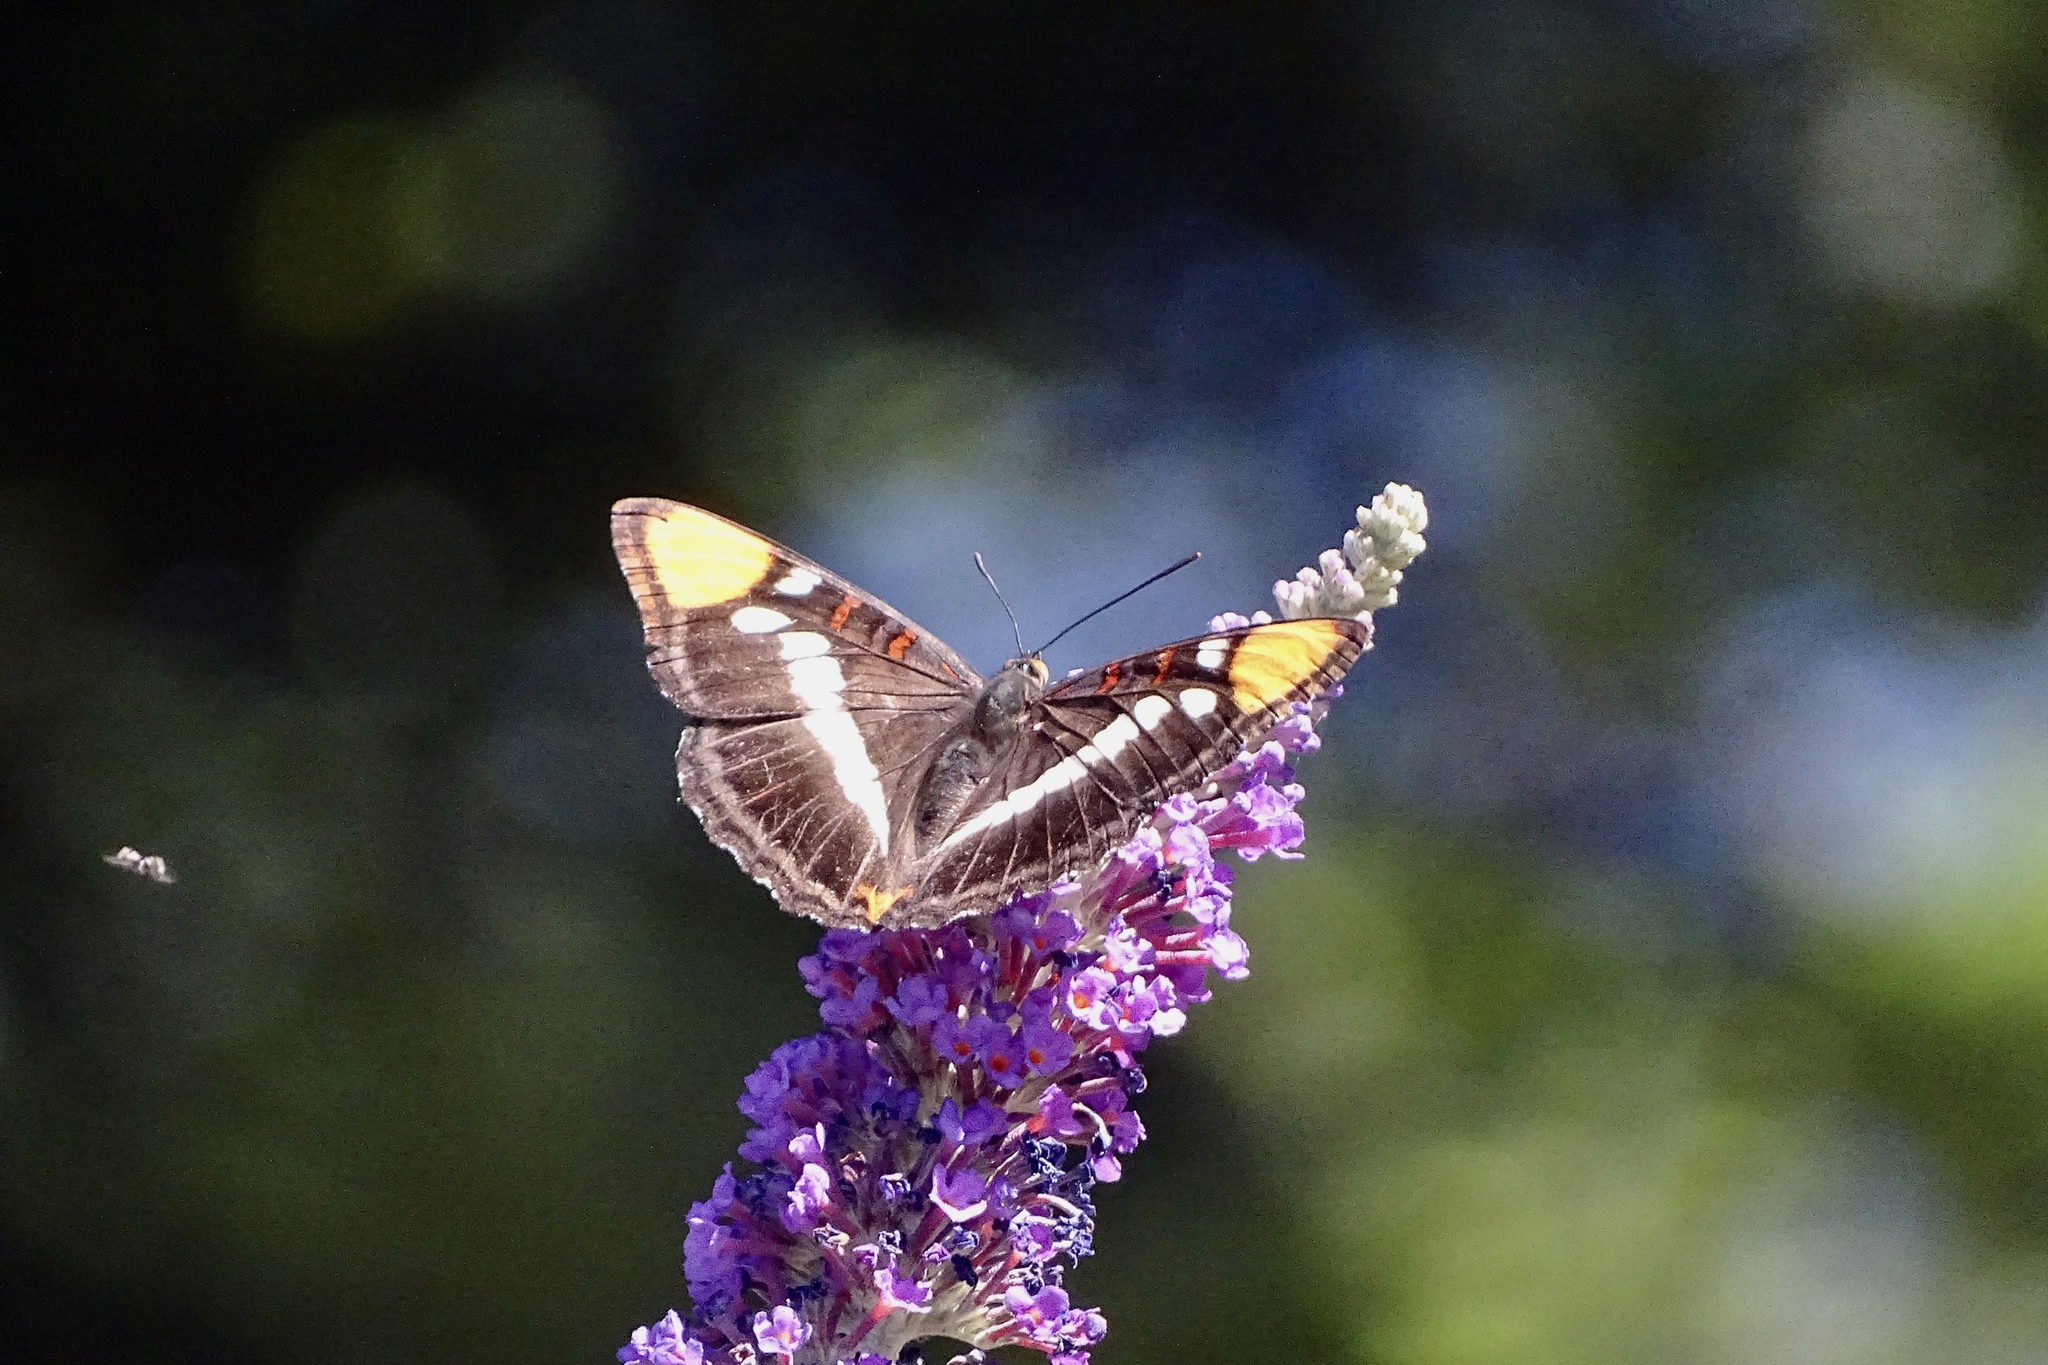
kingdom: Animalia
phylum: Arthropoda
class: Insecta
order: Lepidoptera
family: Nymphalidae
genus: Limenitis
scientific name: Limenitis bredowii
